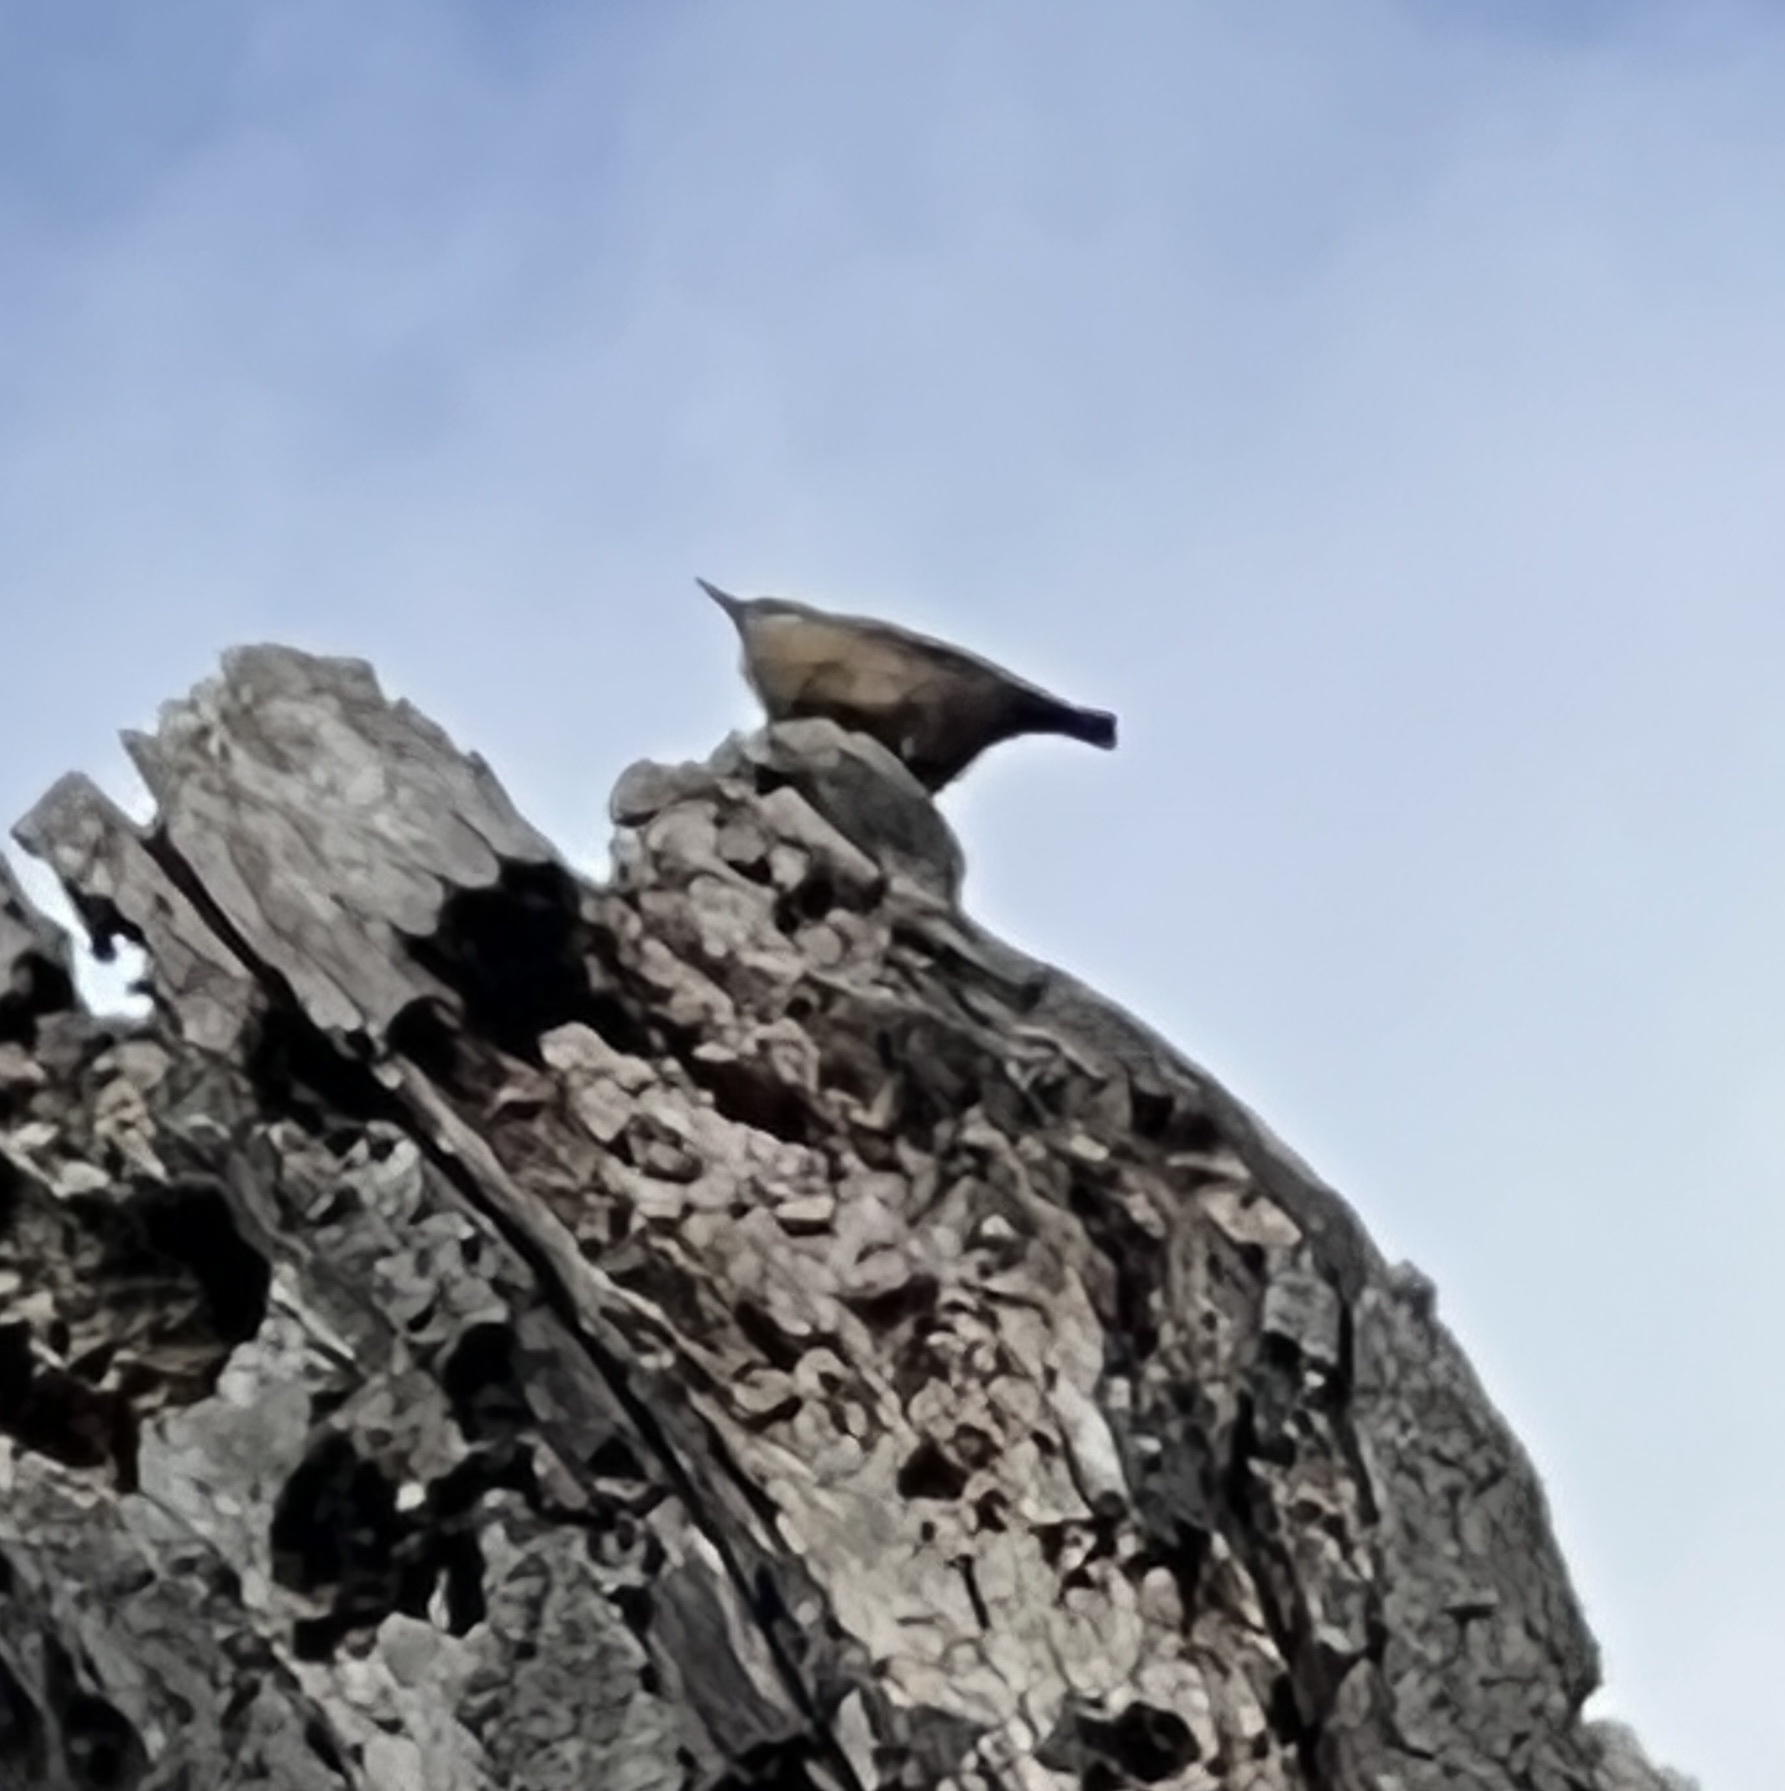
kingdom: Animalia
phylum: Chordata
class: Aves
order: Passeriformes
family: Sittidae
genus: Sitta
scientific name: Sitta europaea
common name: Eurasian nuthatch
